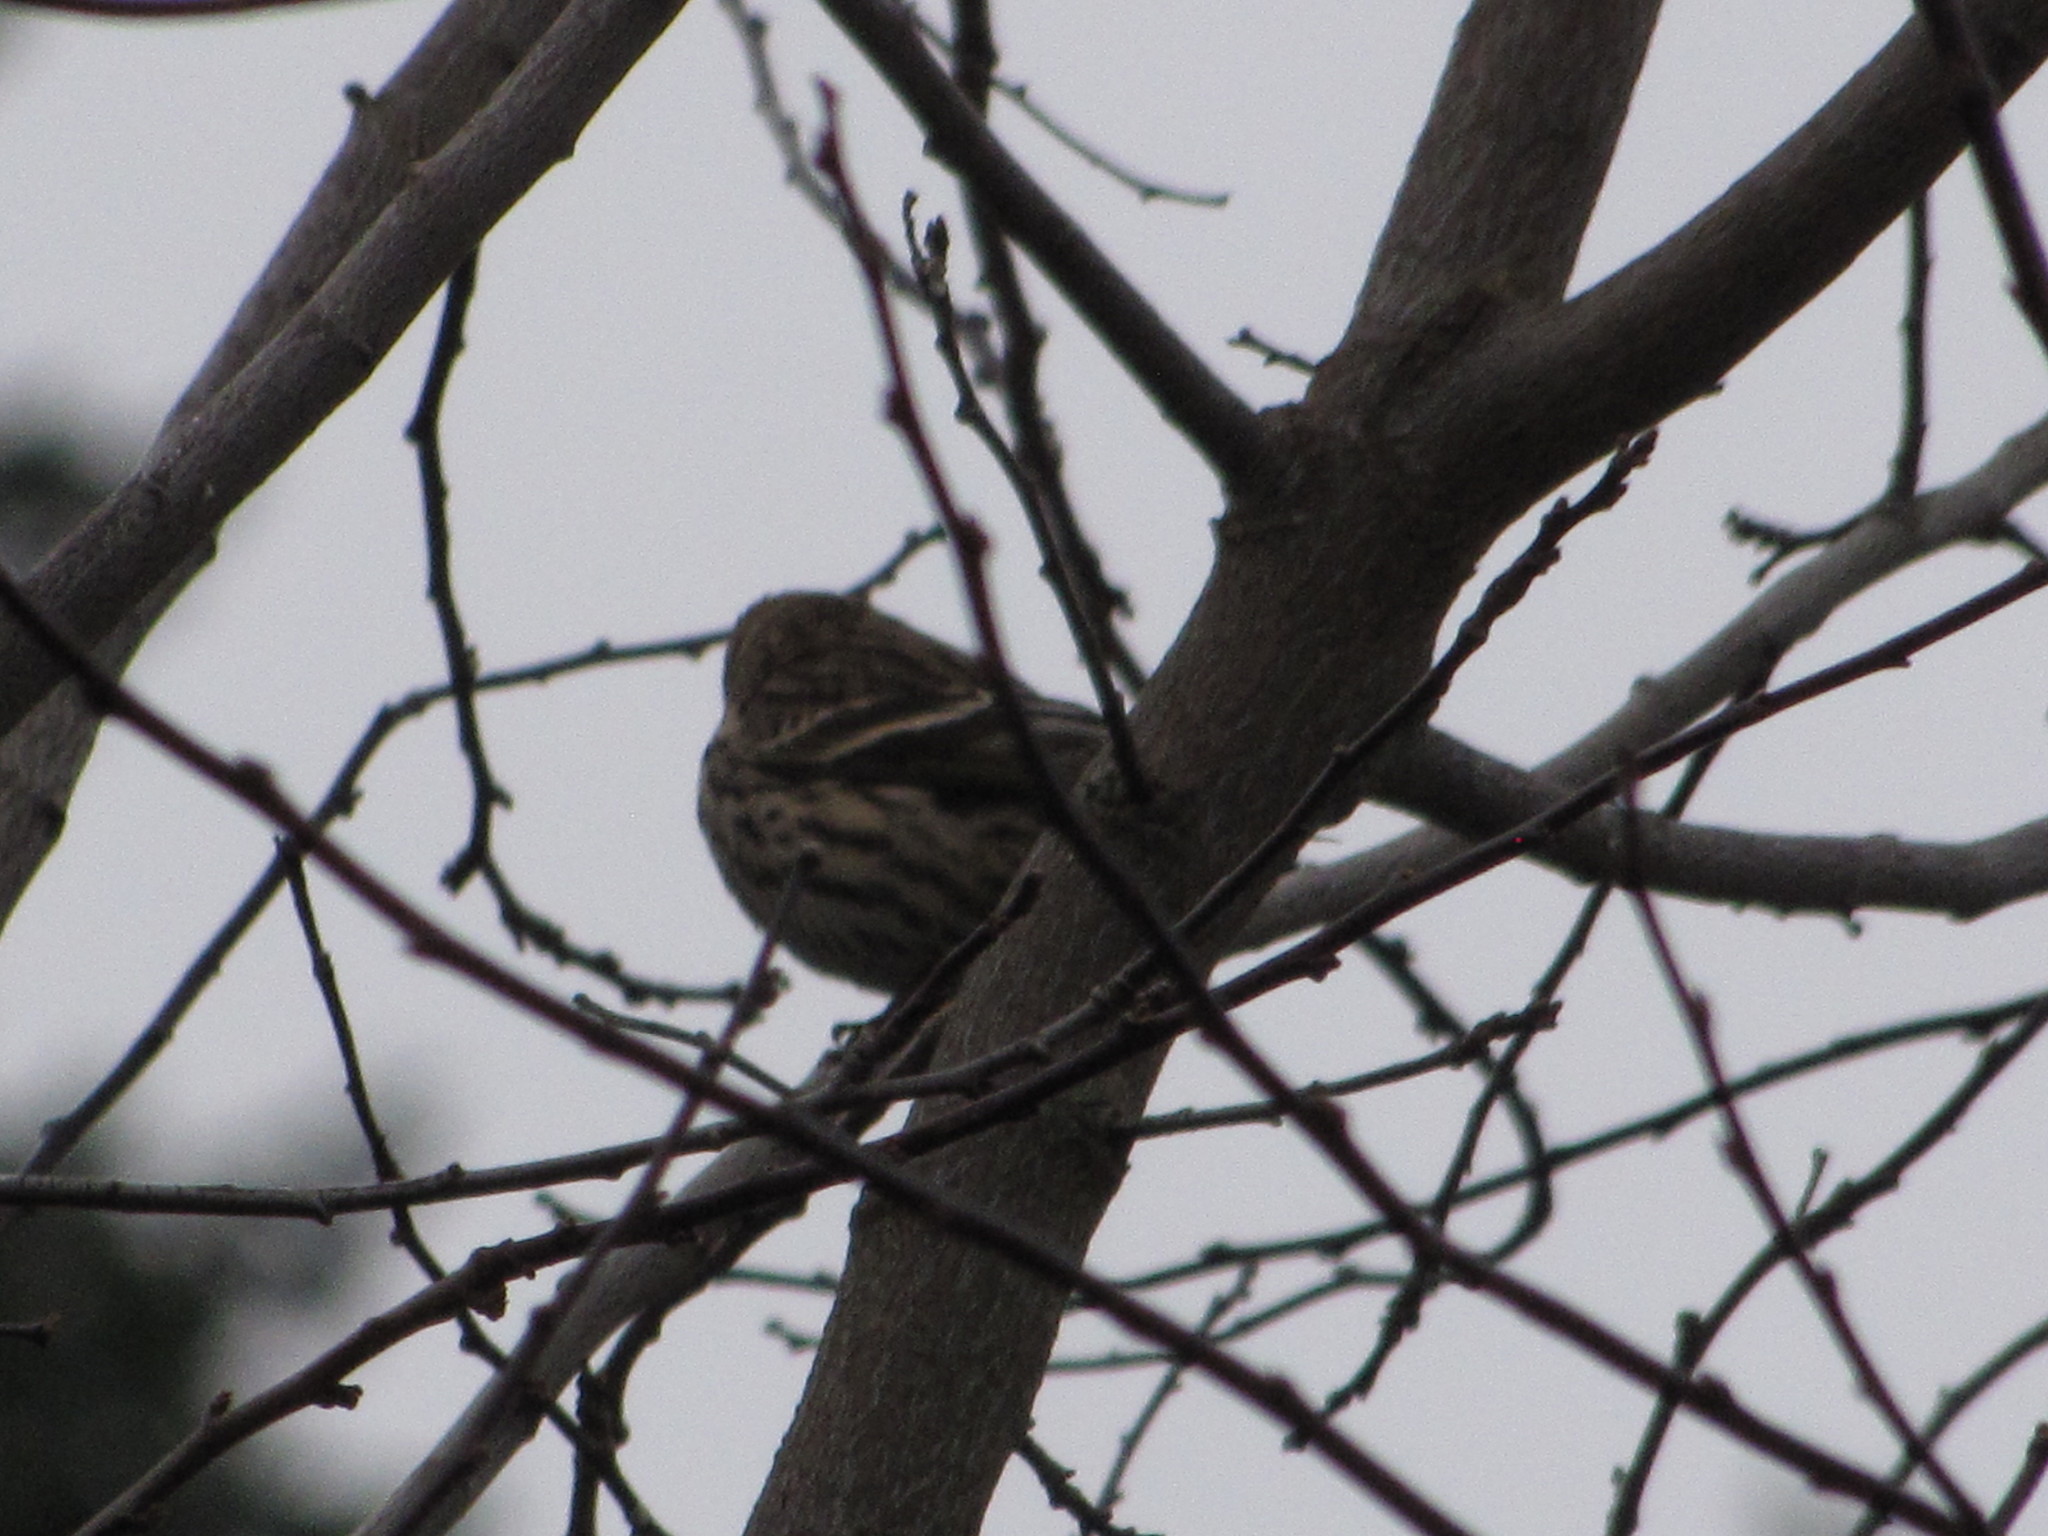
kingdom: Animalia
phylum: Chordata
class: Aves
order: Passeriformes
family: Fringillidae
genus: Spinus
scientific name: Spinus pinus
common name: Pine siskin
